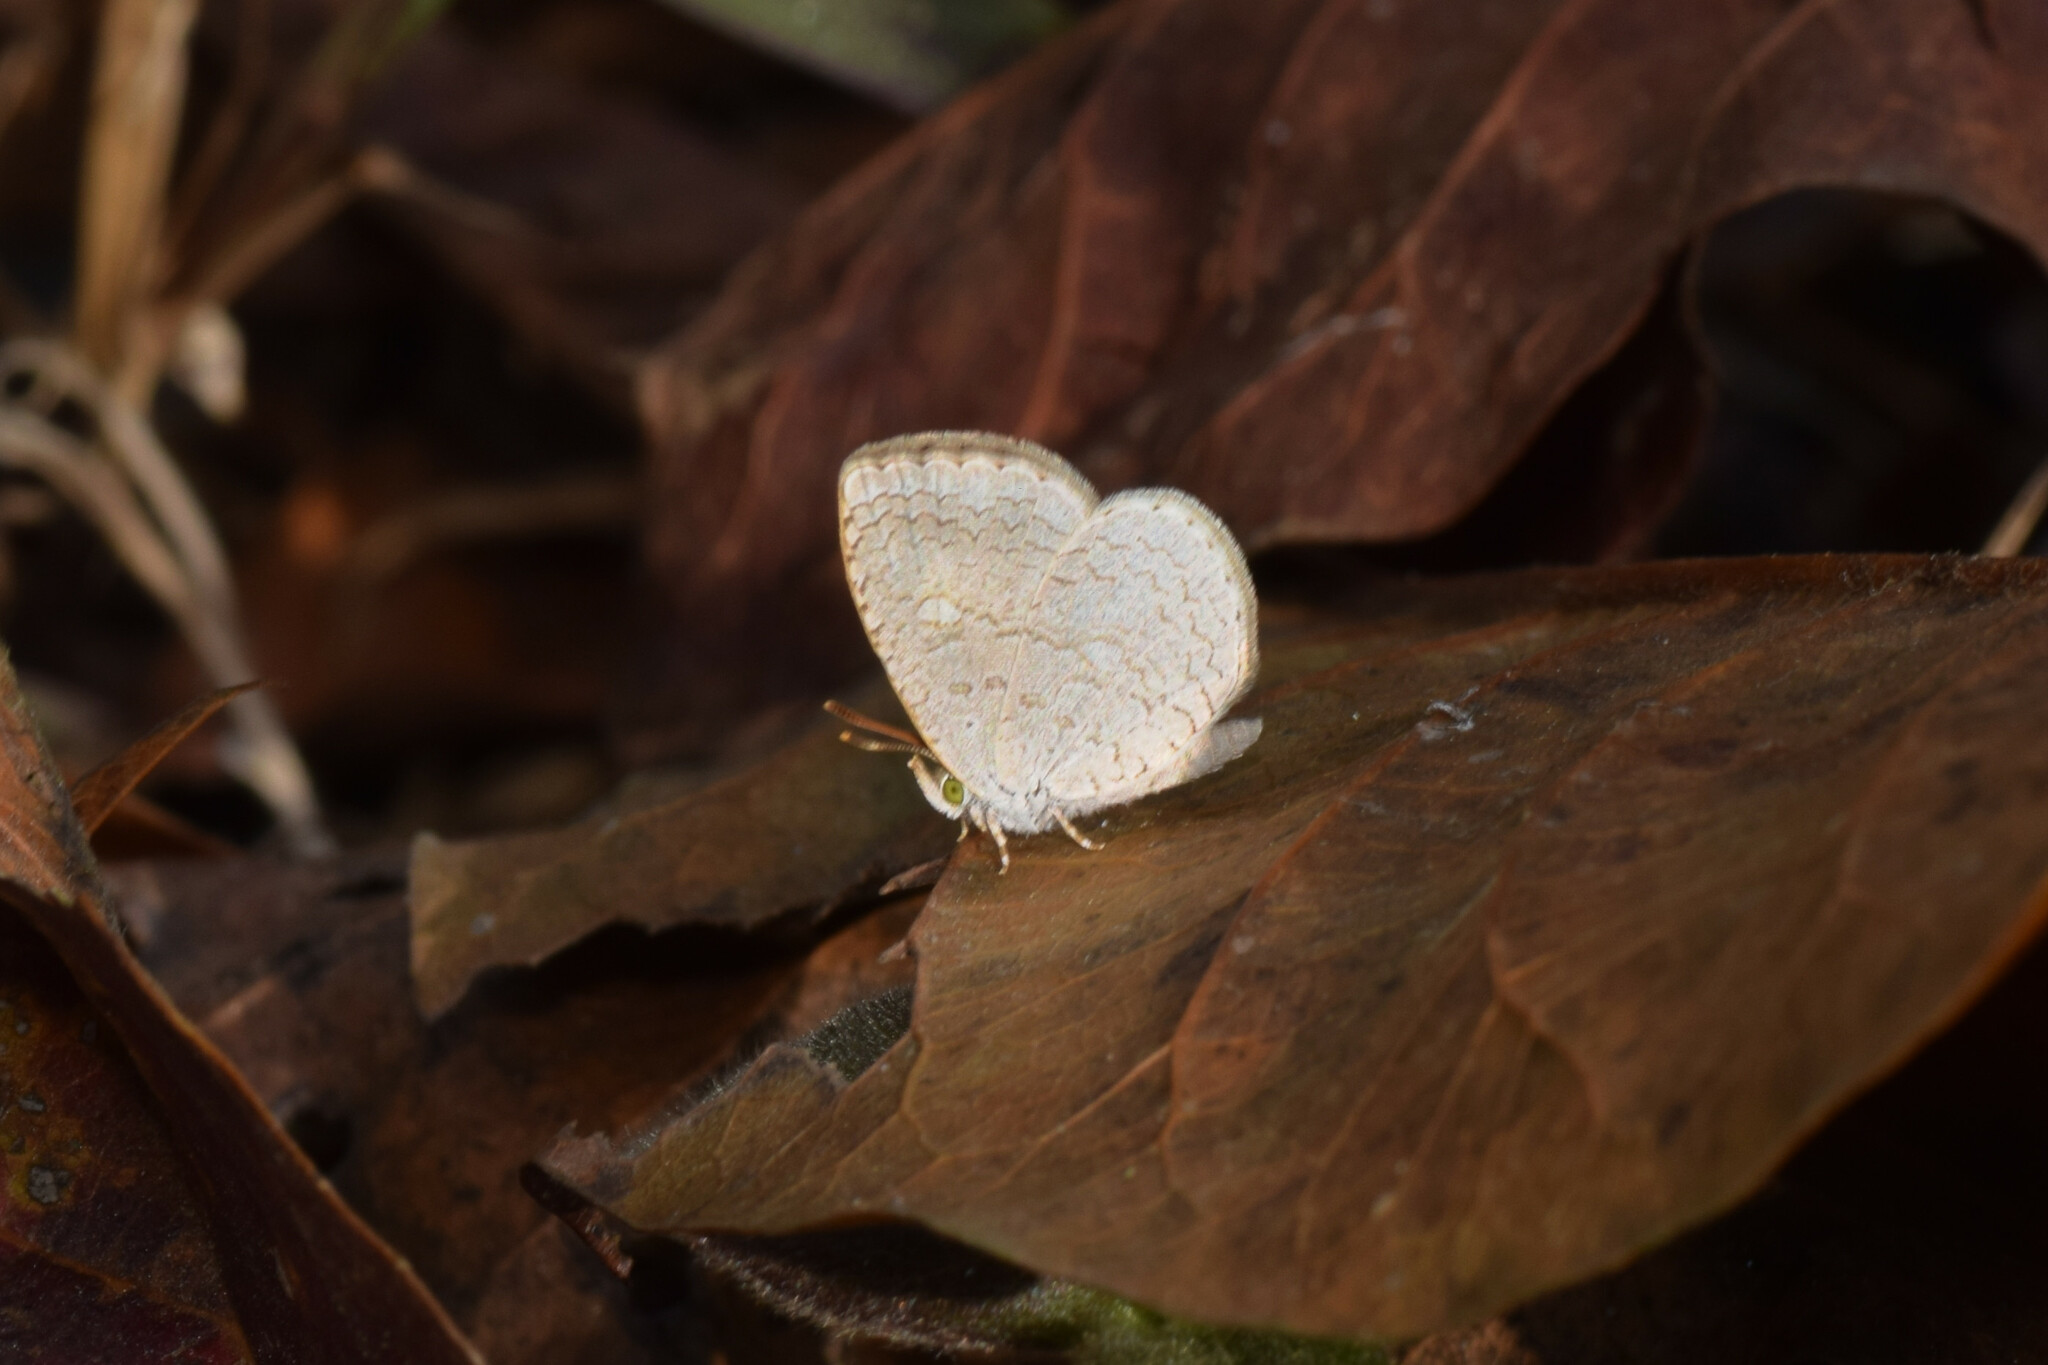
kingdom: Animalia
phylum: Arthropoda
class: Insecta
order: Lepidoptera
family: Lycaenidae
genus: Spalgis
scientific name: Spalgis epius
